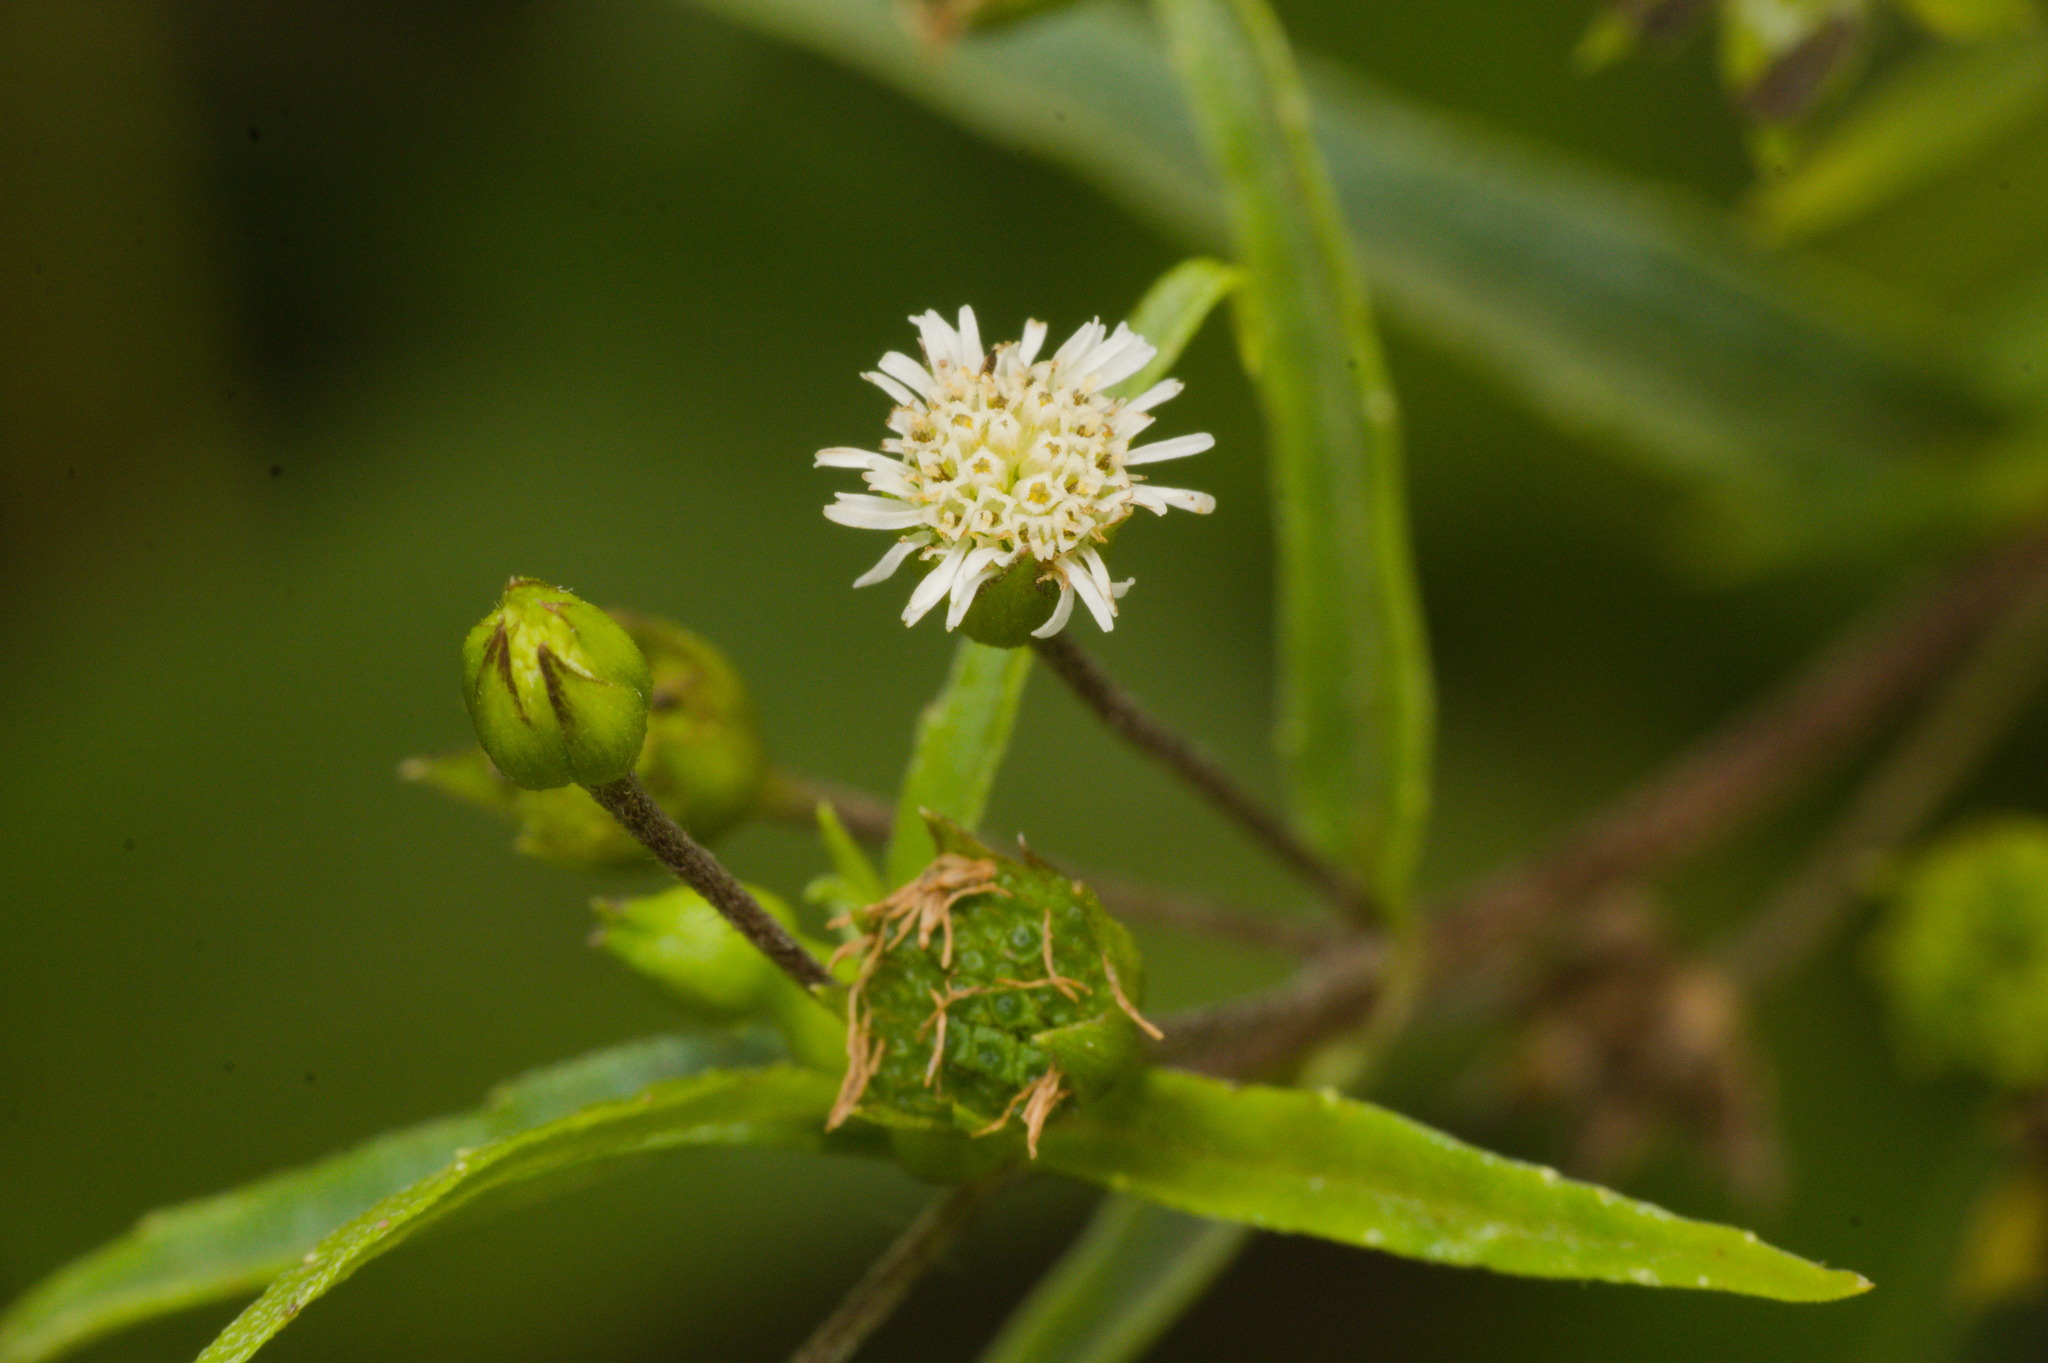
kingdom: Plantae
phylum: Tracheophyta
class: Magnoliopsida
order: Asterales
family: Asteraceae
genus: Eclipta
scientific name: Eclipta prostrata
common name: False daisy
